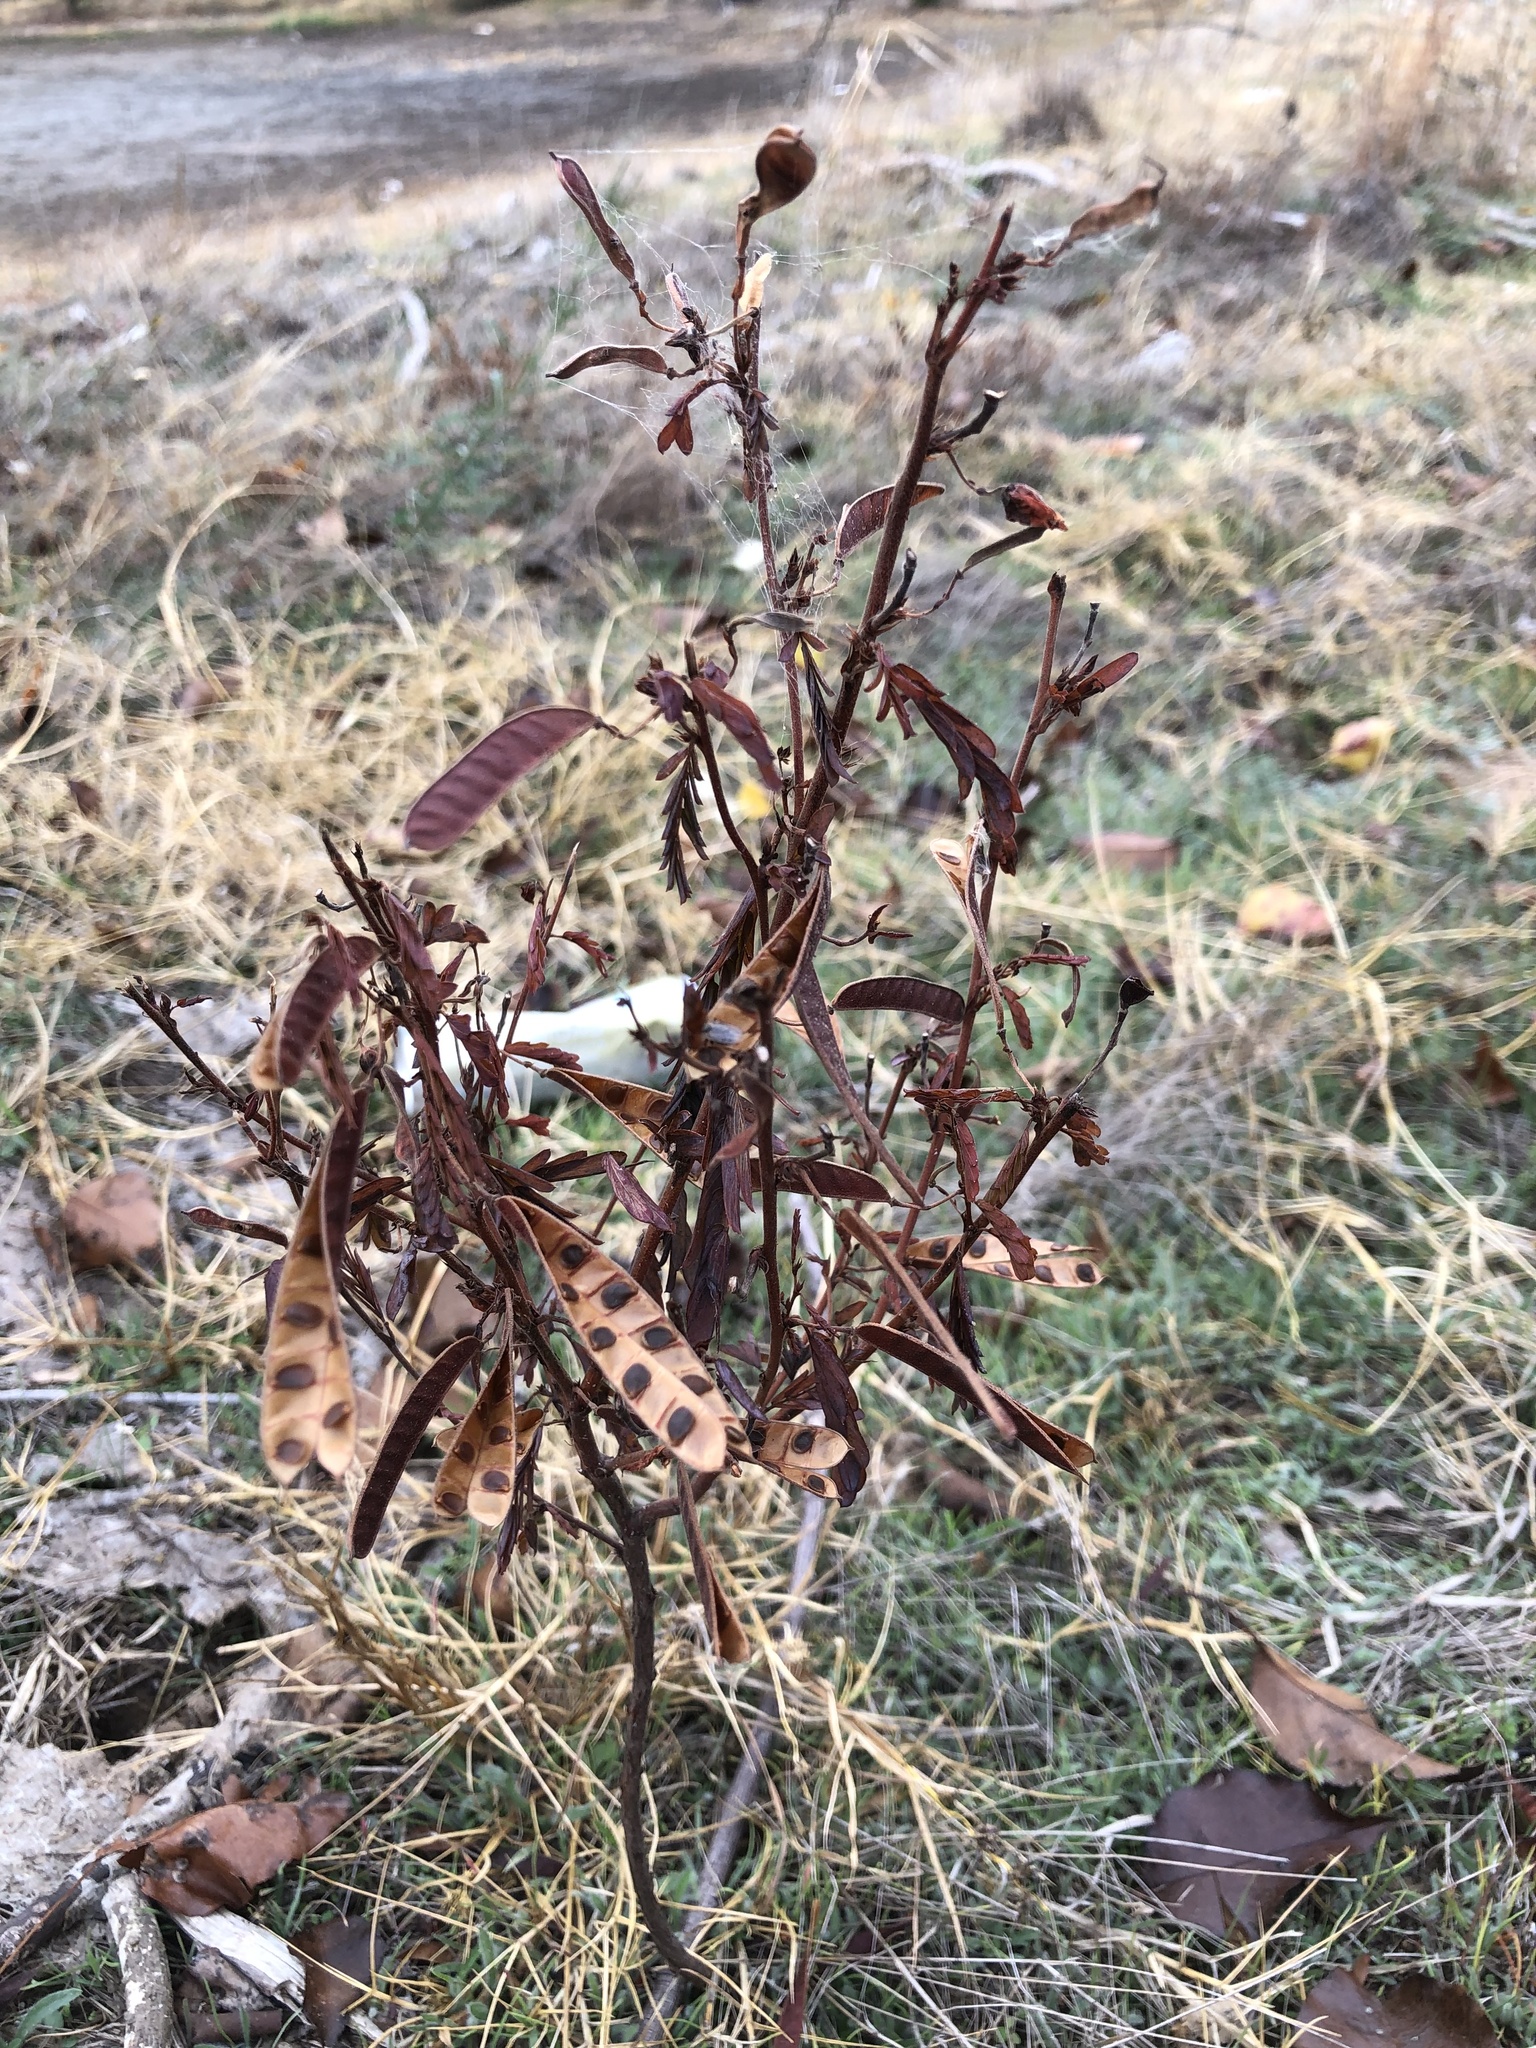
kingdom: Plantae
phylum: Tracheophyta
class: Magnoliopsida
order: Fabales
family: Fabaceae
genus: Chamaecrista
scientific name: Chamaecrista fasciculata
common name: Golden cassia
